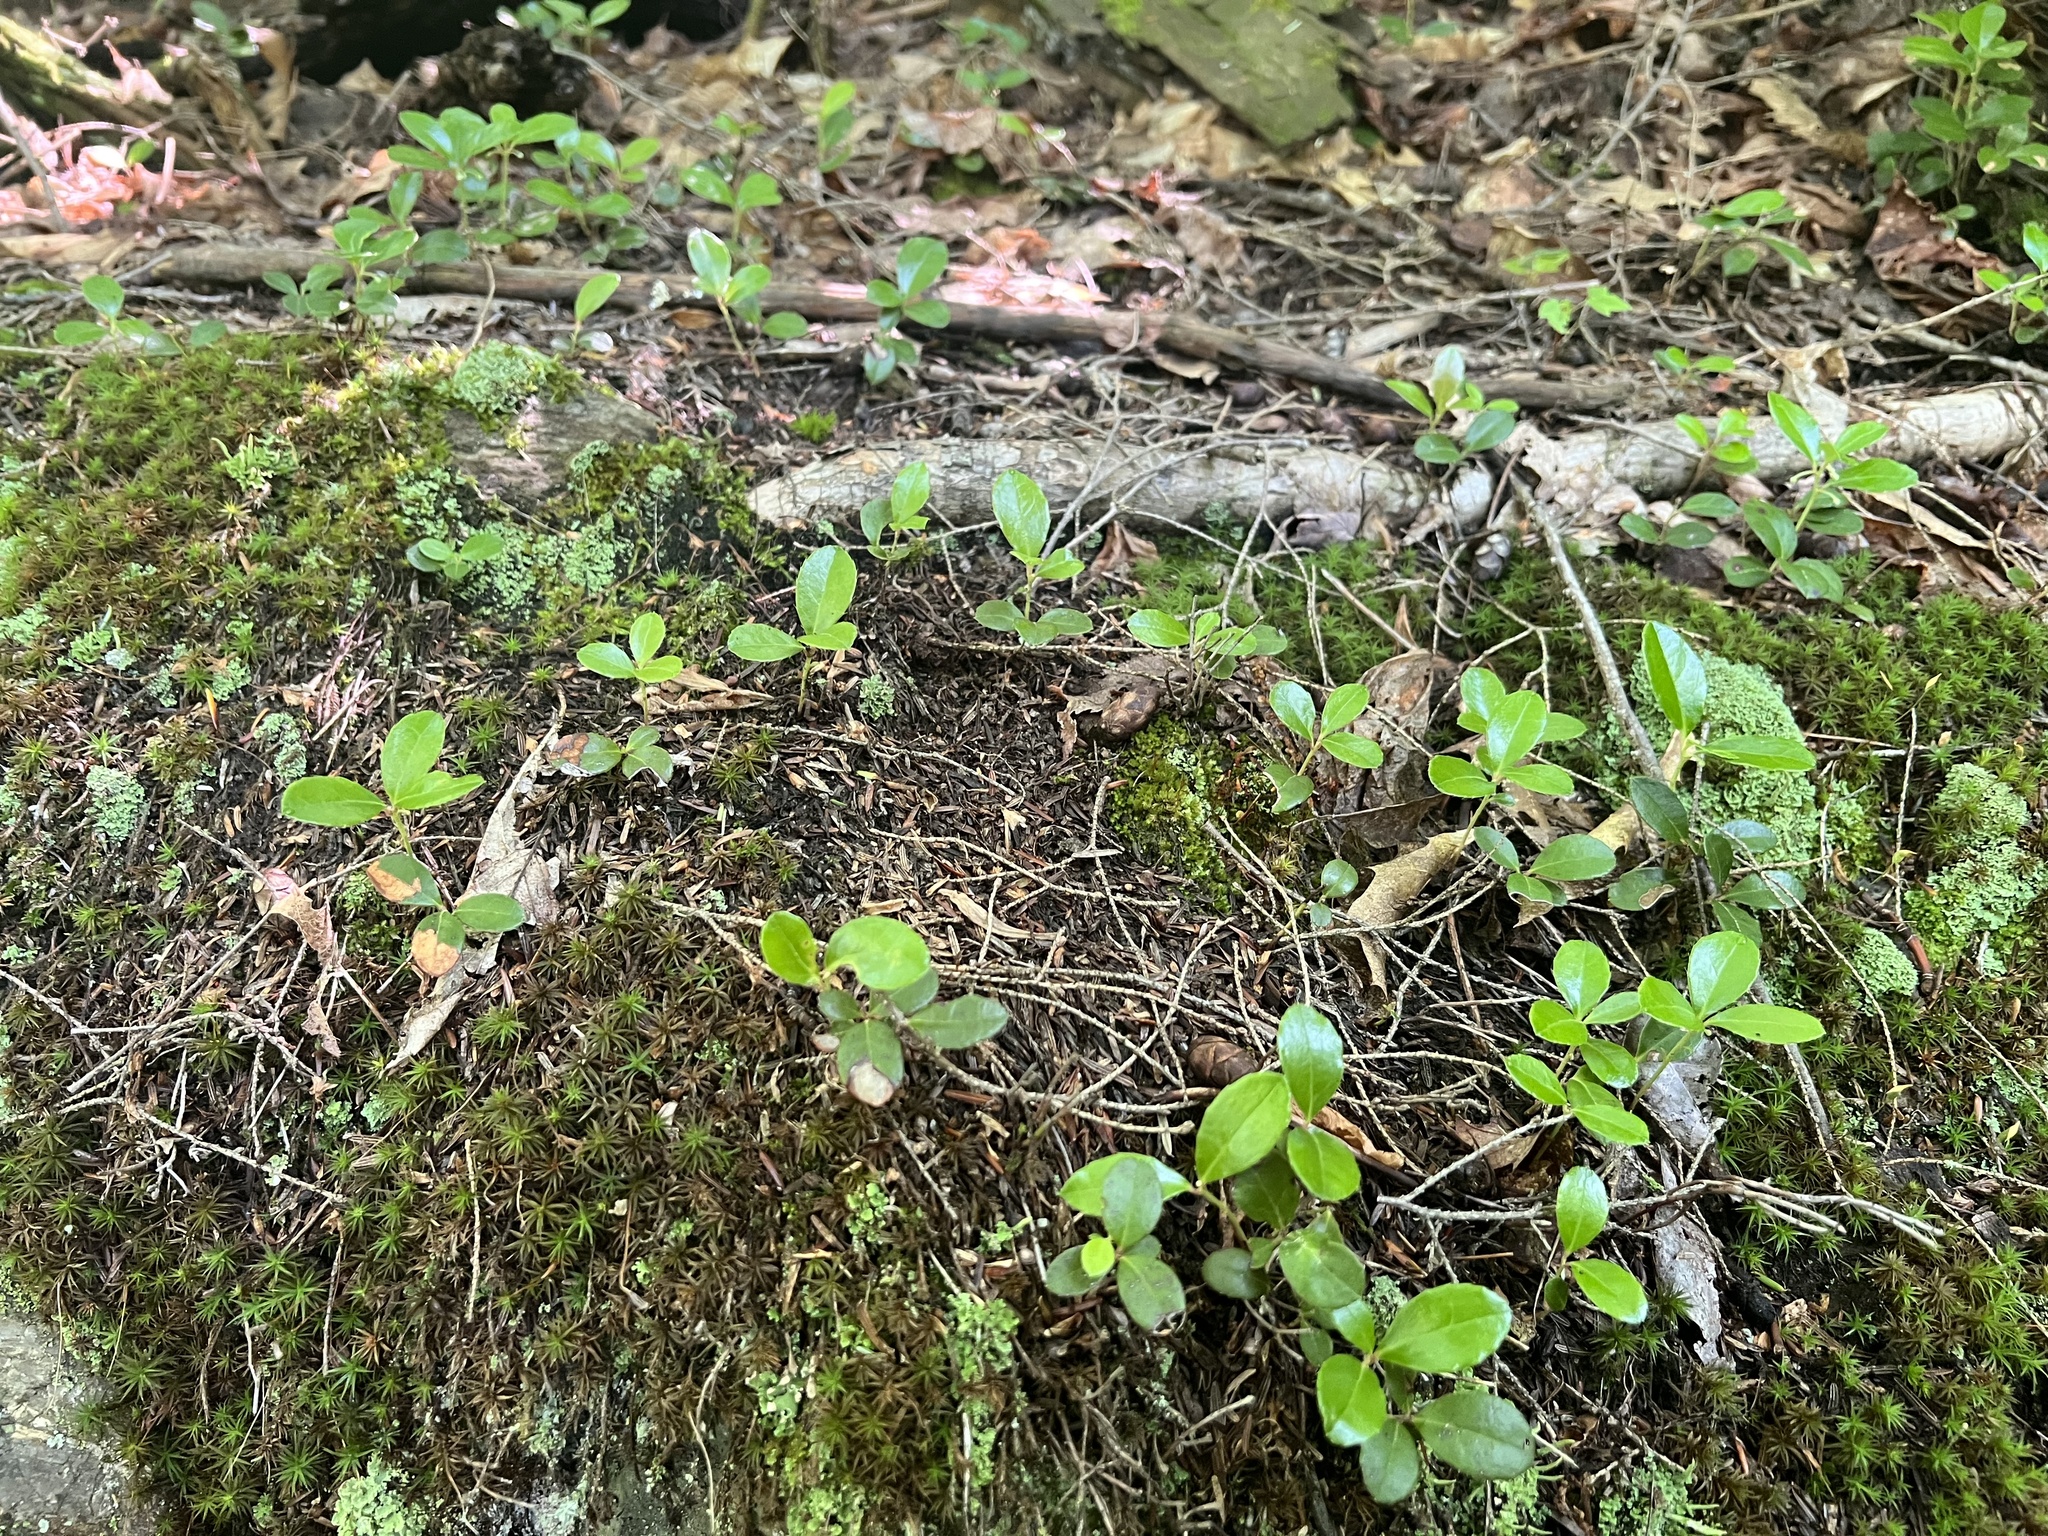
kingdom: Plantae
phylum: Tracheophyta
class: Magnoliopsida
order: Ericales
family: Ericaceae
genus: Gaultheria
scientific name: Gaultheria procumbens
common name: Checkerberry
